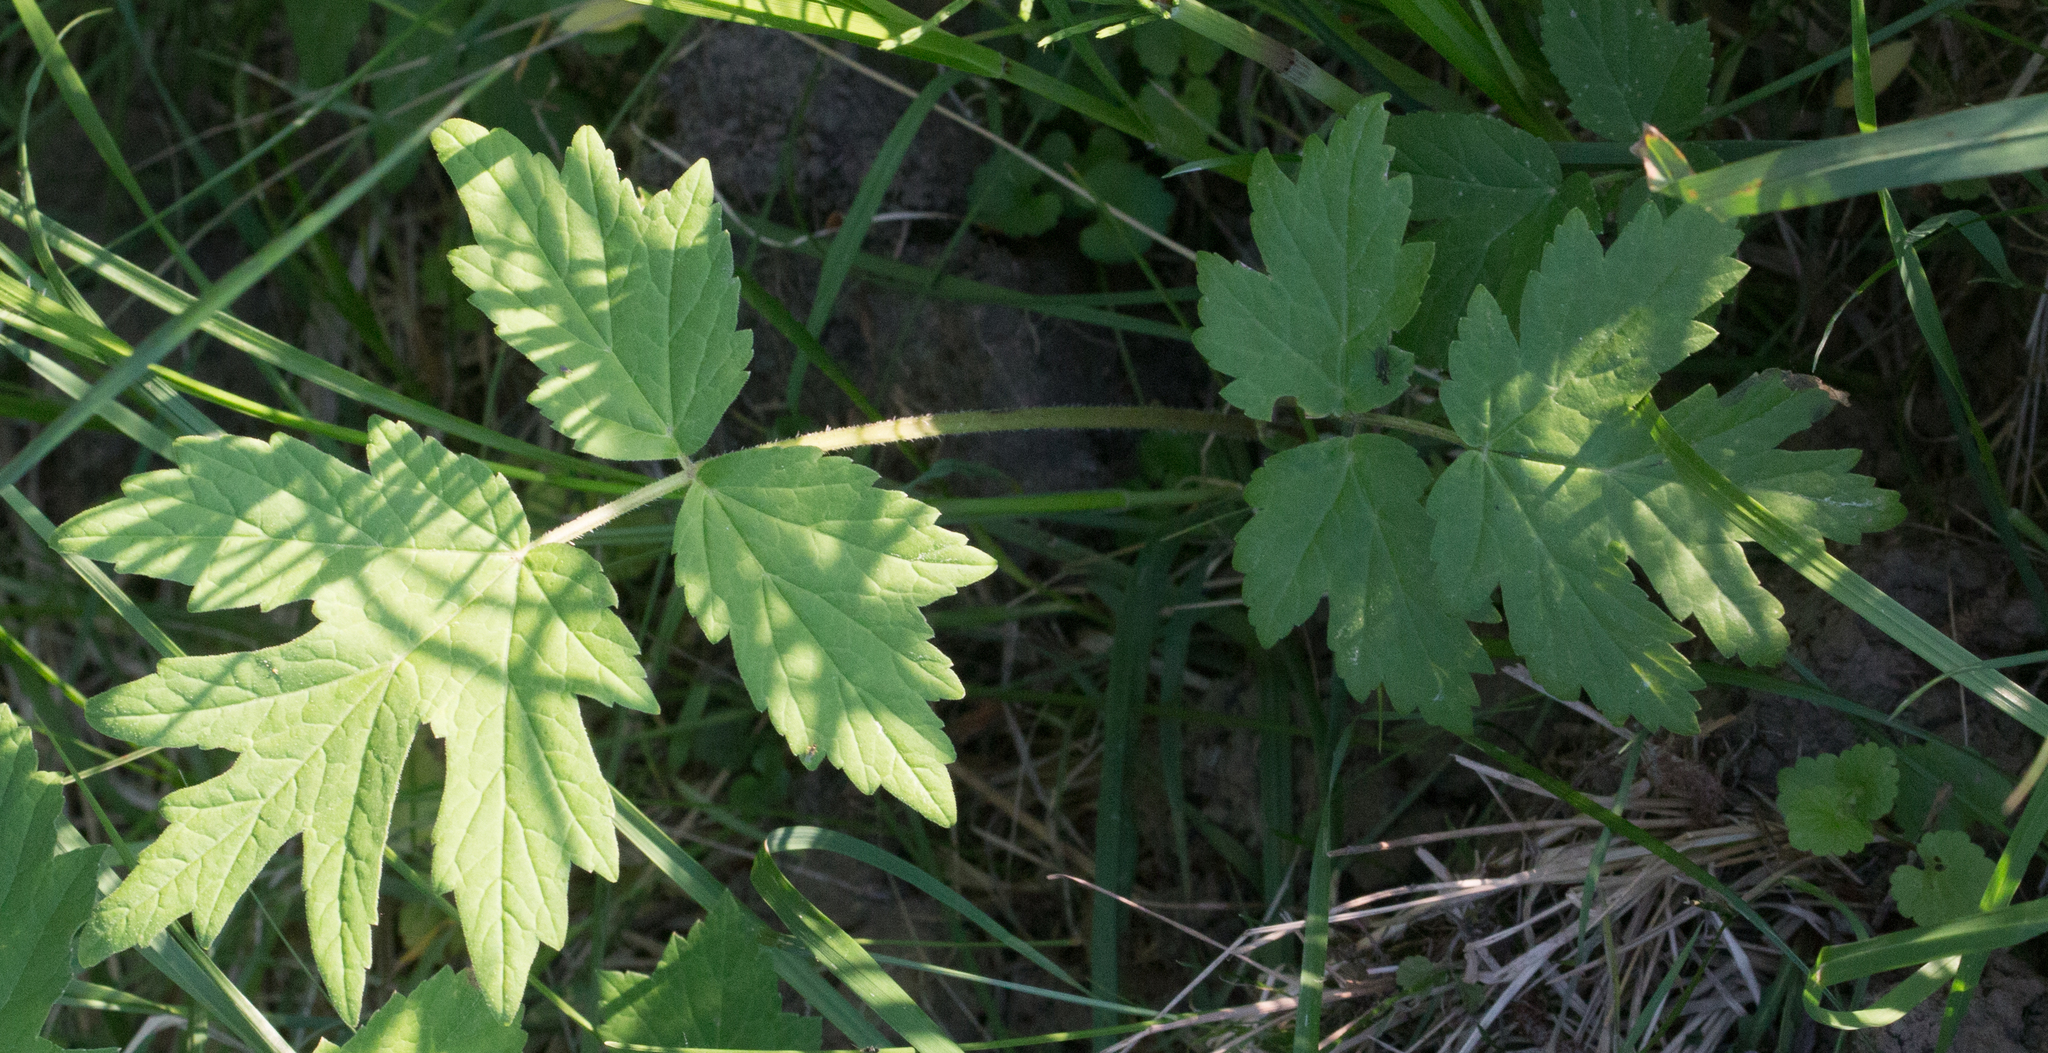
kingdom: Plantae
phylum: Tracheophyta
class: Magnoliopsida
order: Apiales
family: Apiaceae
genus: Heracleum
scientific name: Heracleum sphondylium
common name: Hogweed
